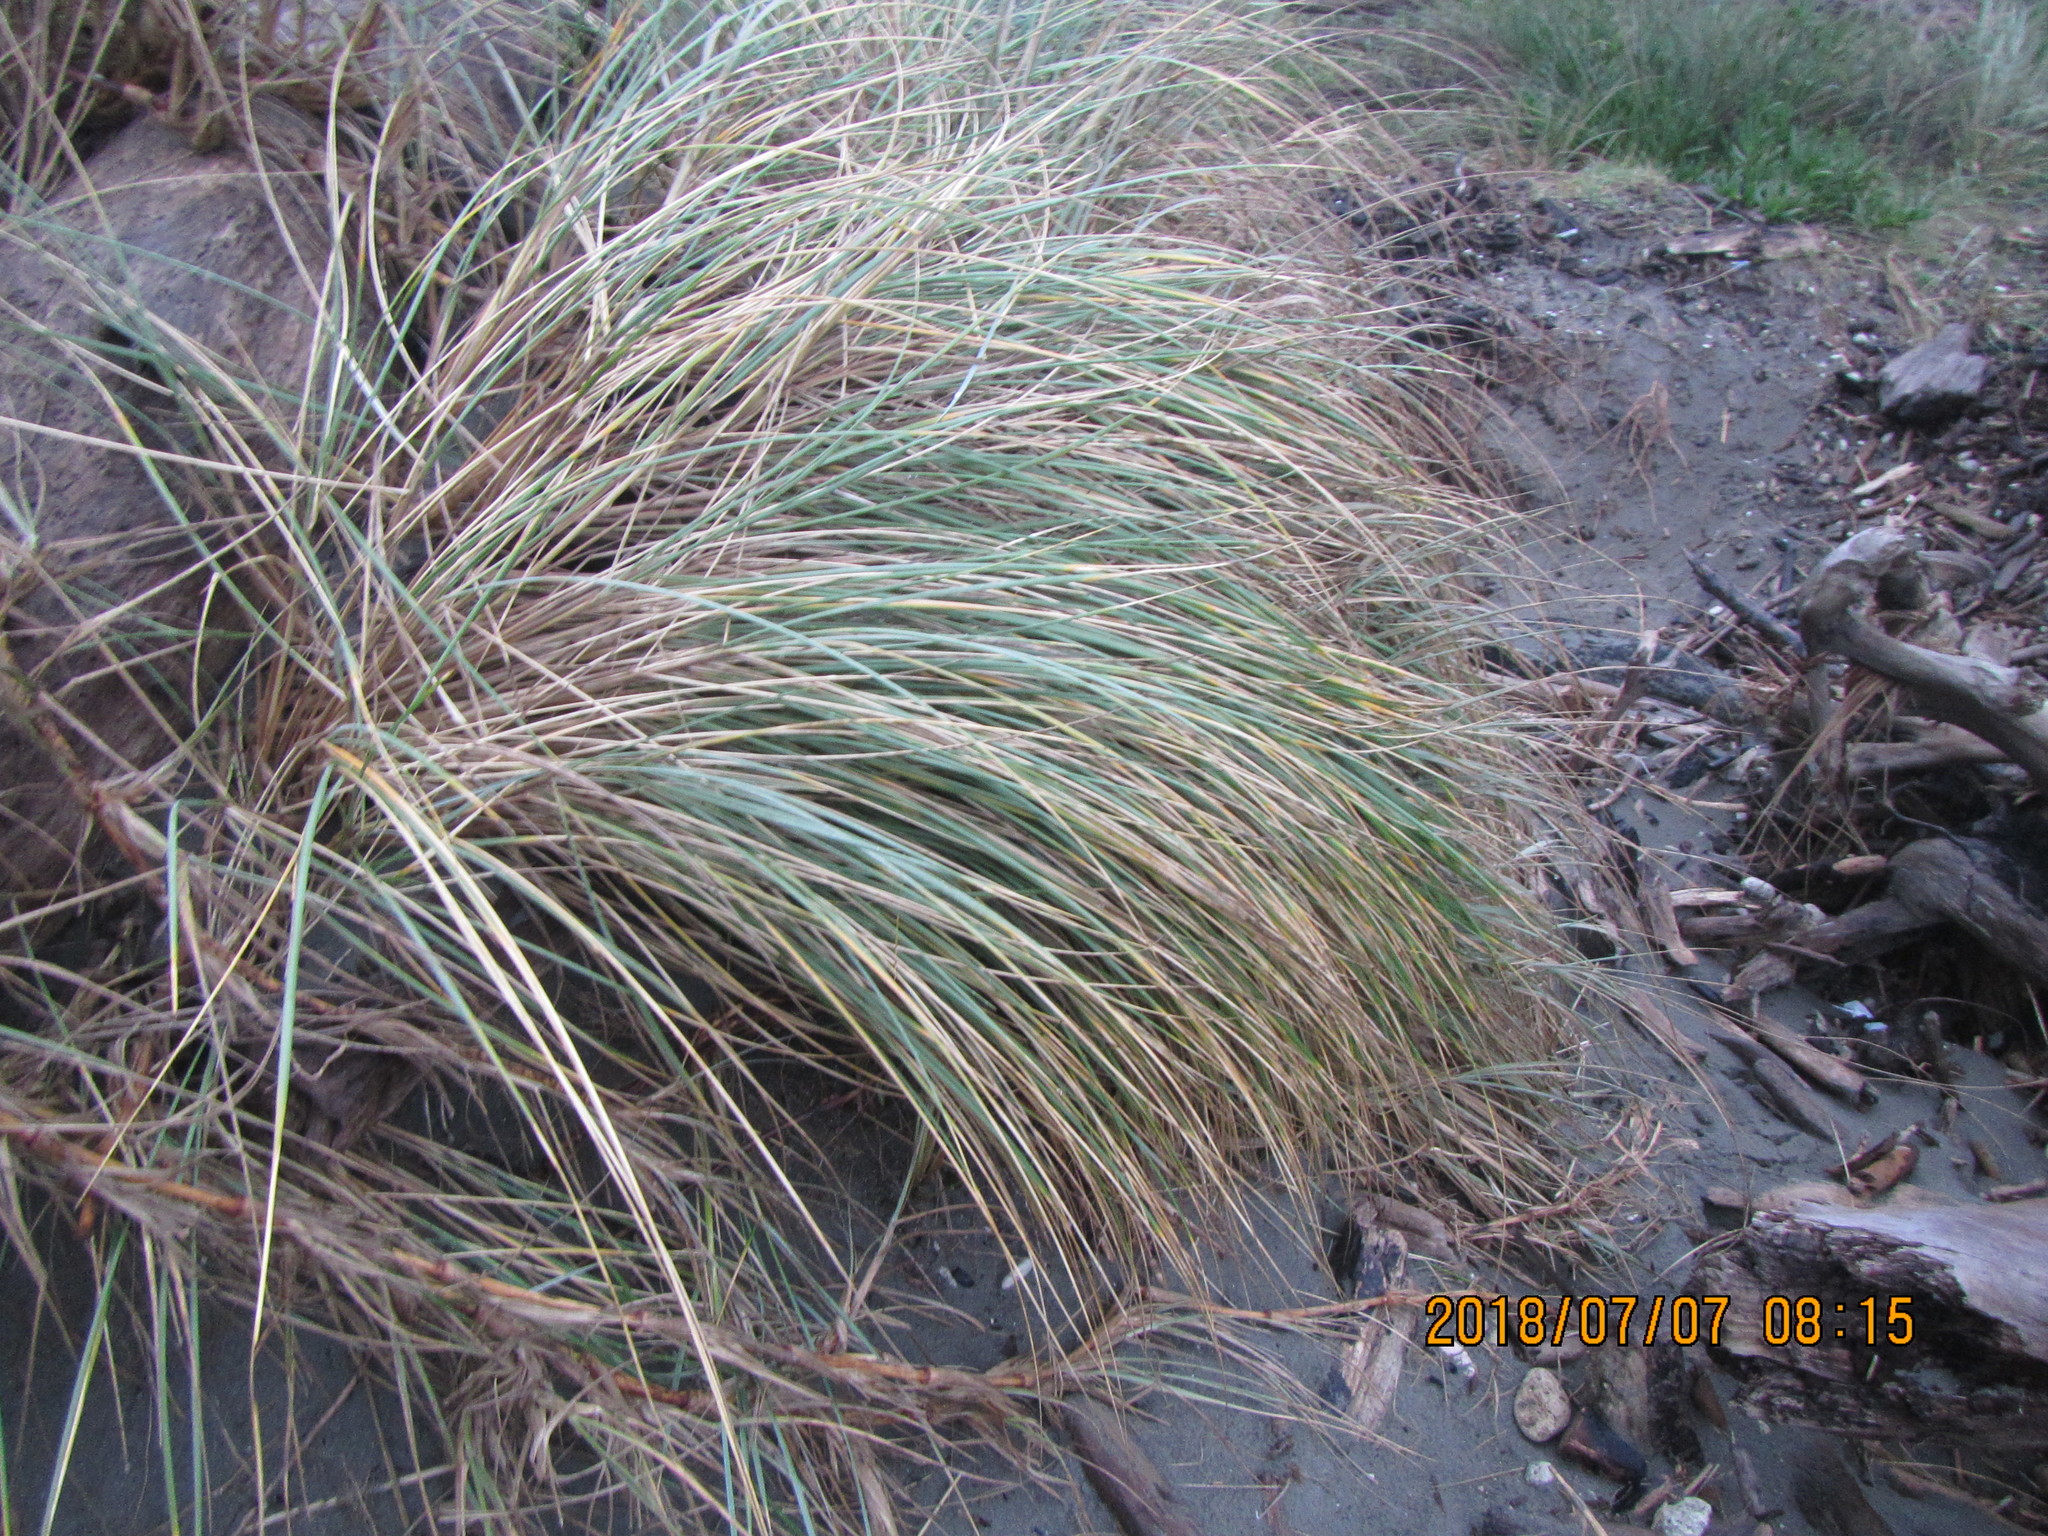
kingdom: Plantae
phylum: Tracheophyta
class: Liliopsida
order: Poales
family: Poaceae
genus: Calamagrostis
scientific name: Calamagrostis arenaria
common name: European beachgrass
